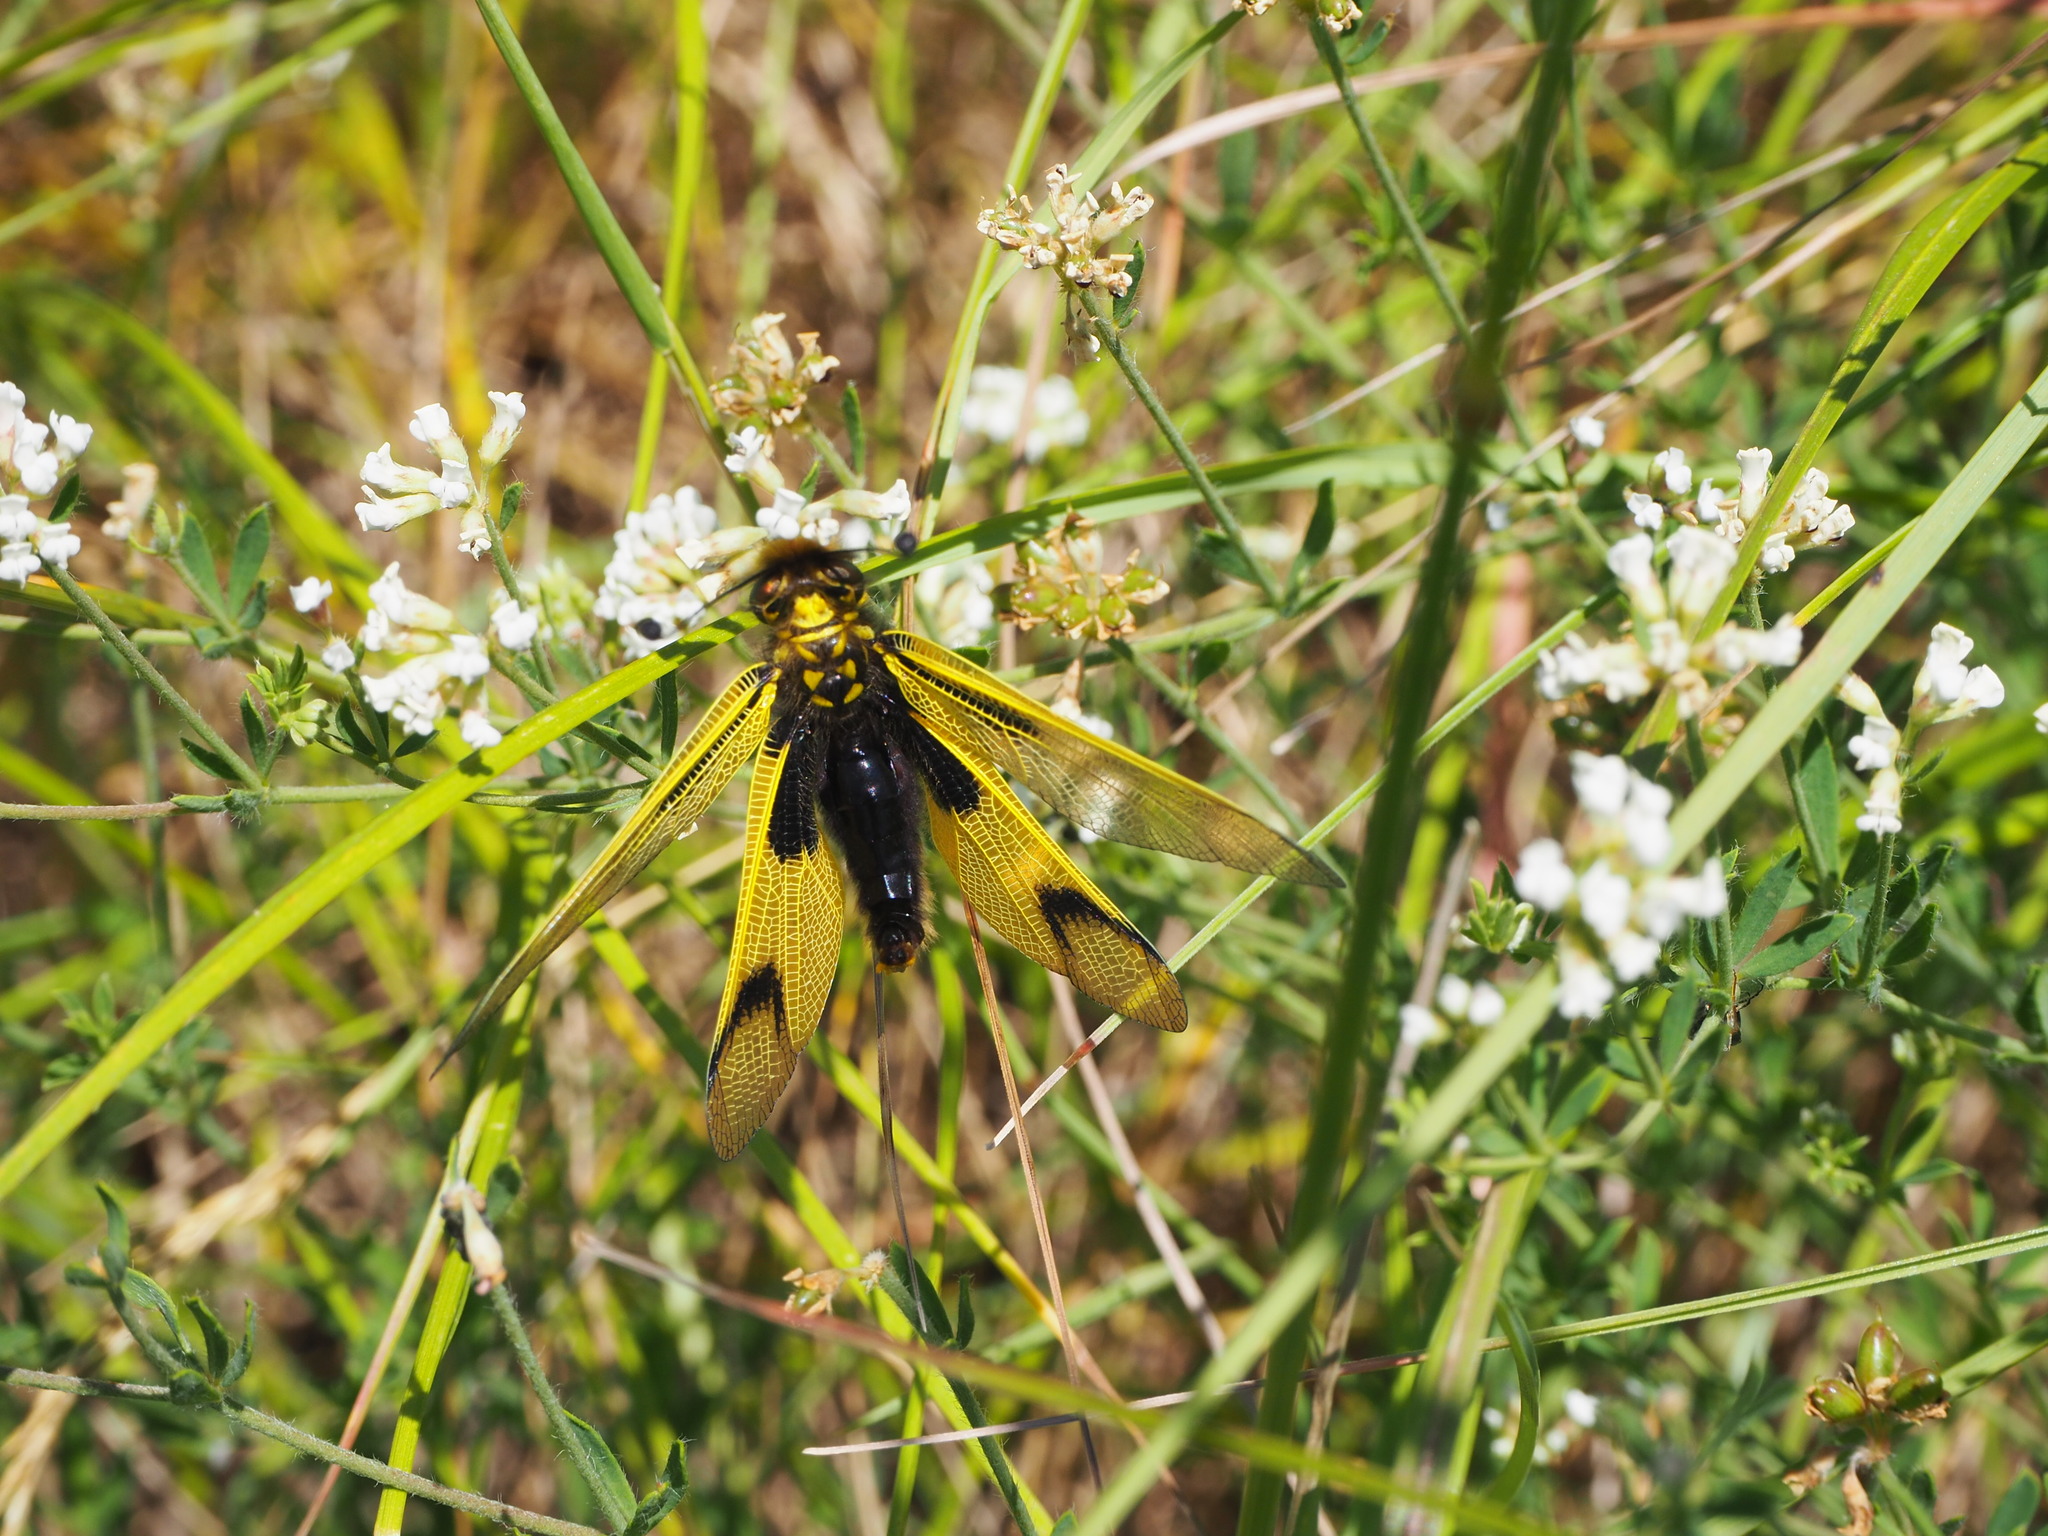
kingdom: Animalia
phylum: Arthropoda
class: Insecta
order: Neuroptera
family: Ascalaphidae
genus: Libelloides
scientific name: Libelloides longicornis
